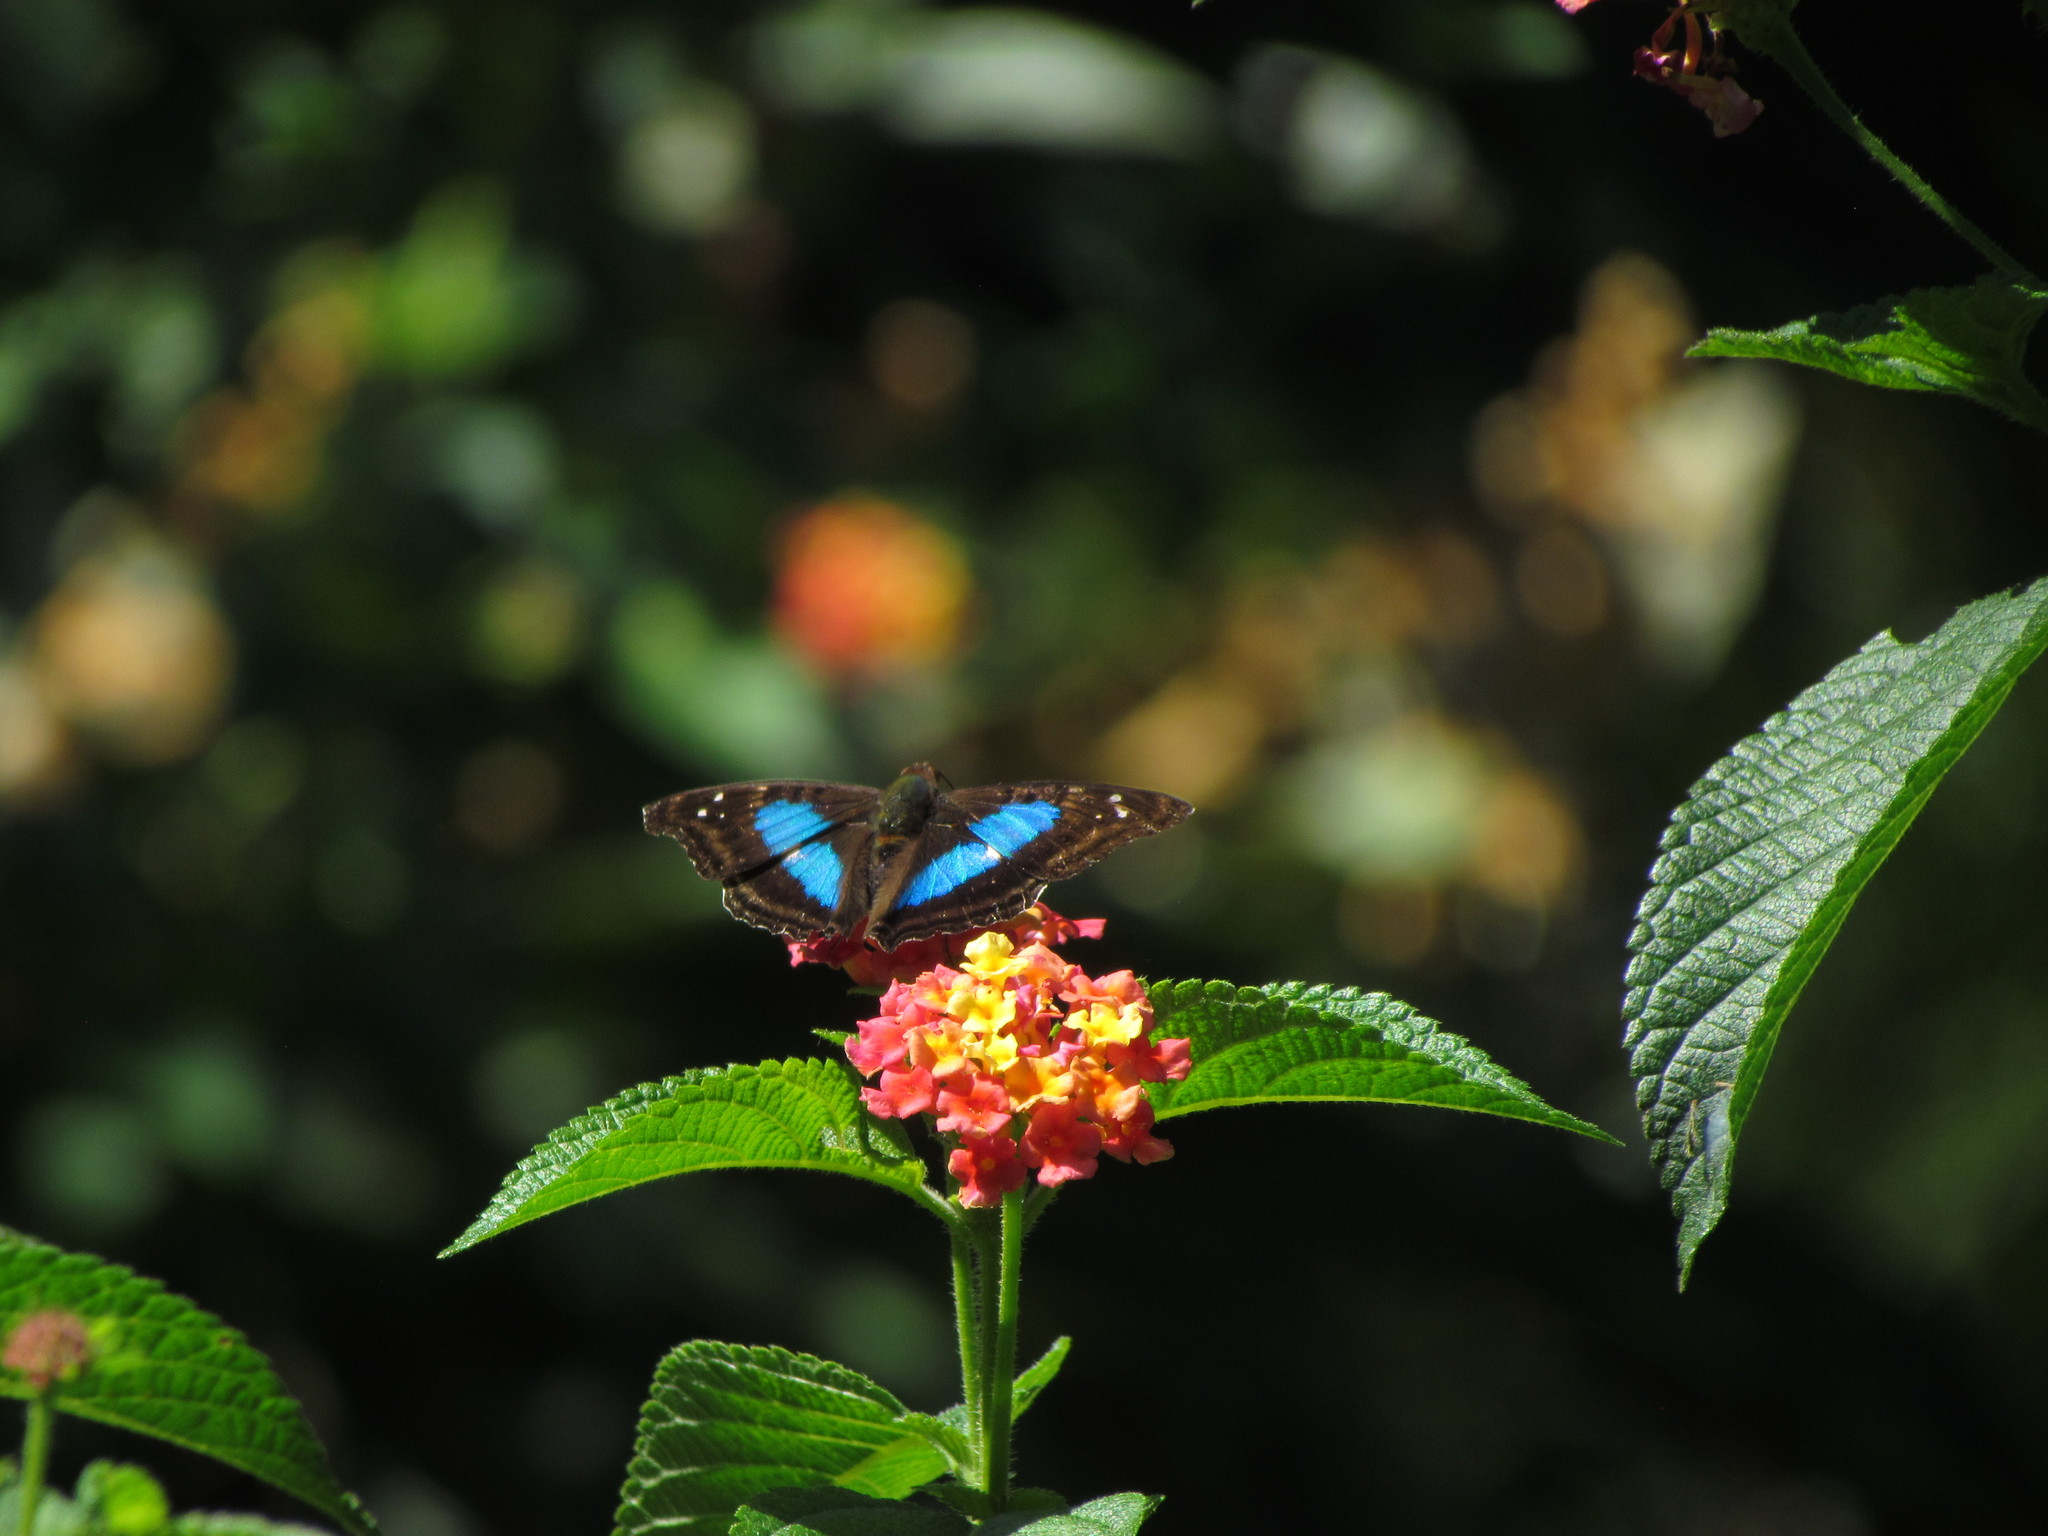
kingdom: Animalia
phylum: Arthropoda
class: Insecta
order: Lepidoptera
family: Nymphalidae
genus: Doxocopa
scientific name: Doxocopa laurentia
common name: Turquoise emperor
